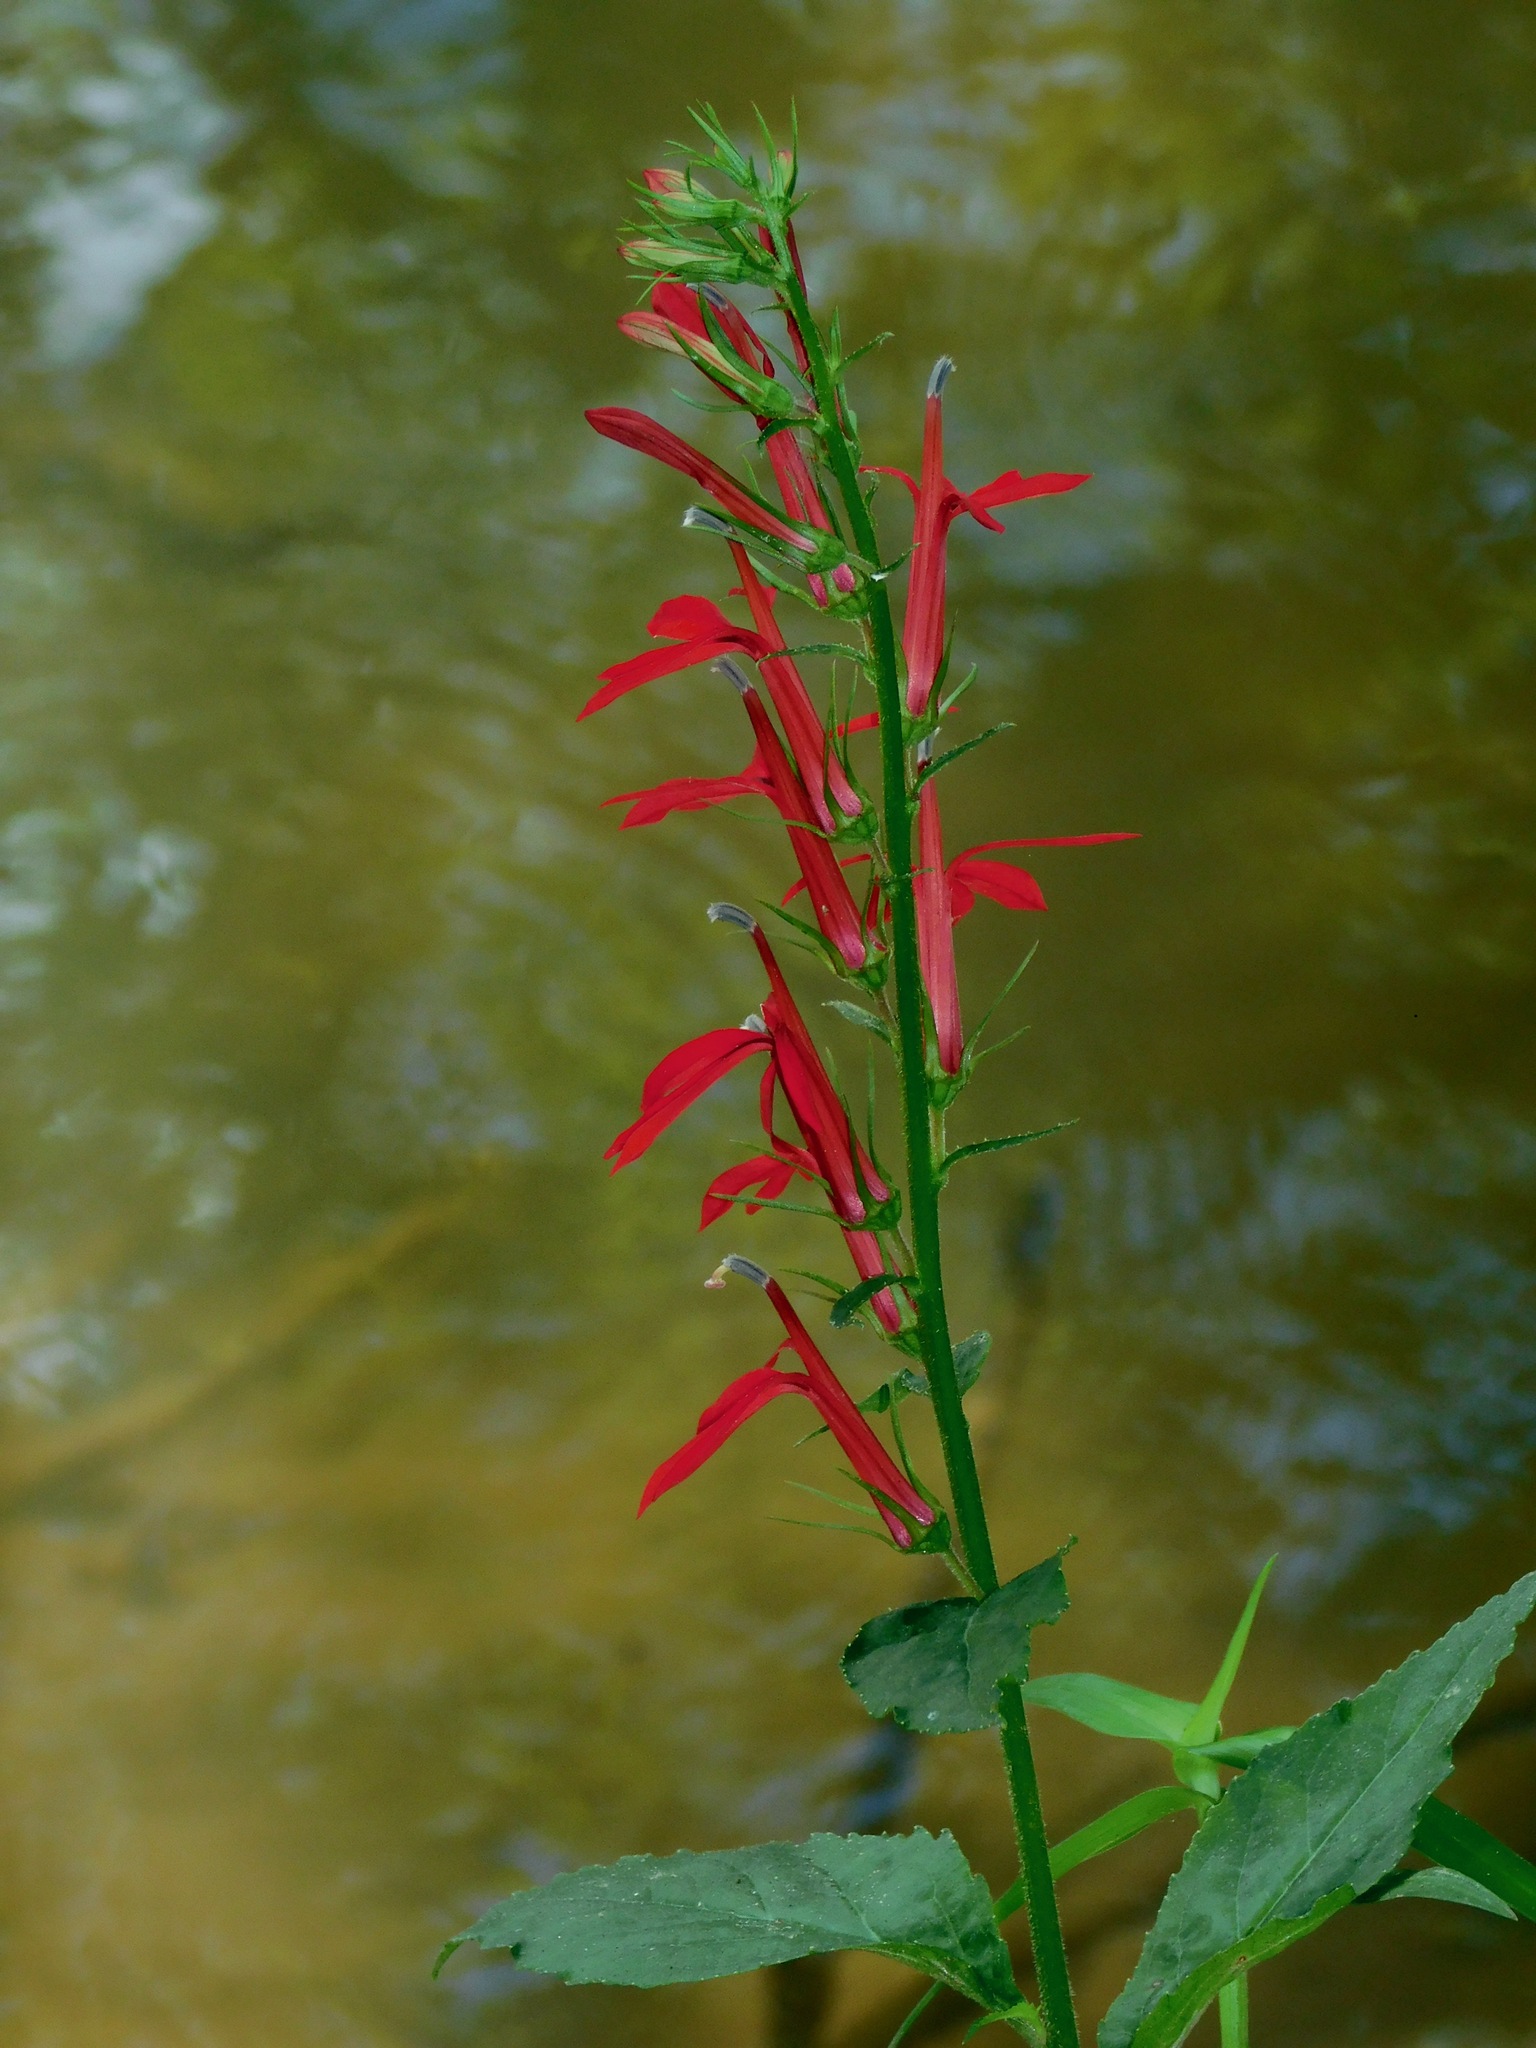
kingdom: Plantae
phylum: Tracheophyta
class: Magnoliopsida
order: Asterales
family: Campanulaceae
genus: Lobelia
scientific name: Lobelia cardinalis
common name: Cardinal flower
